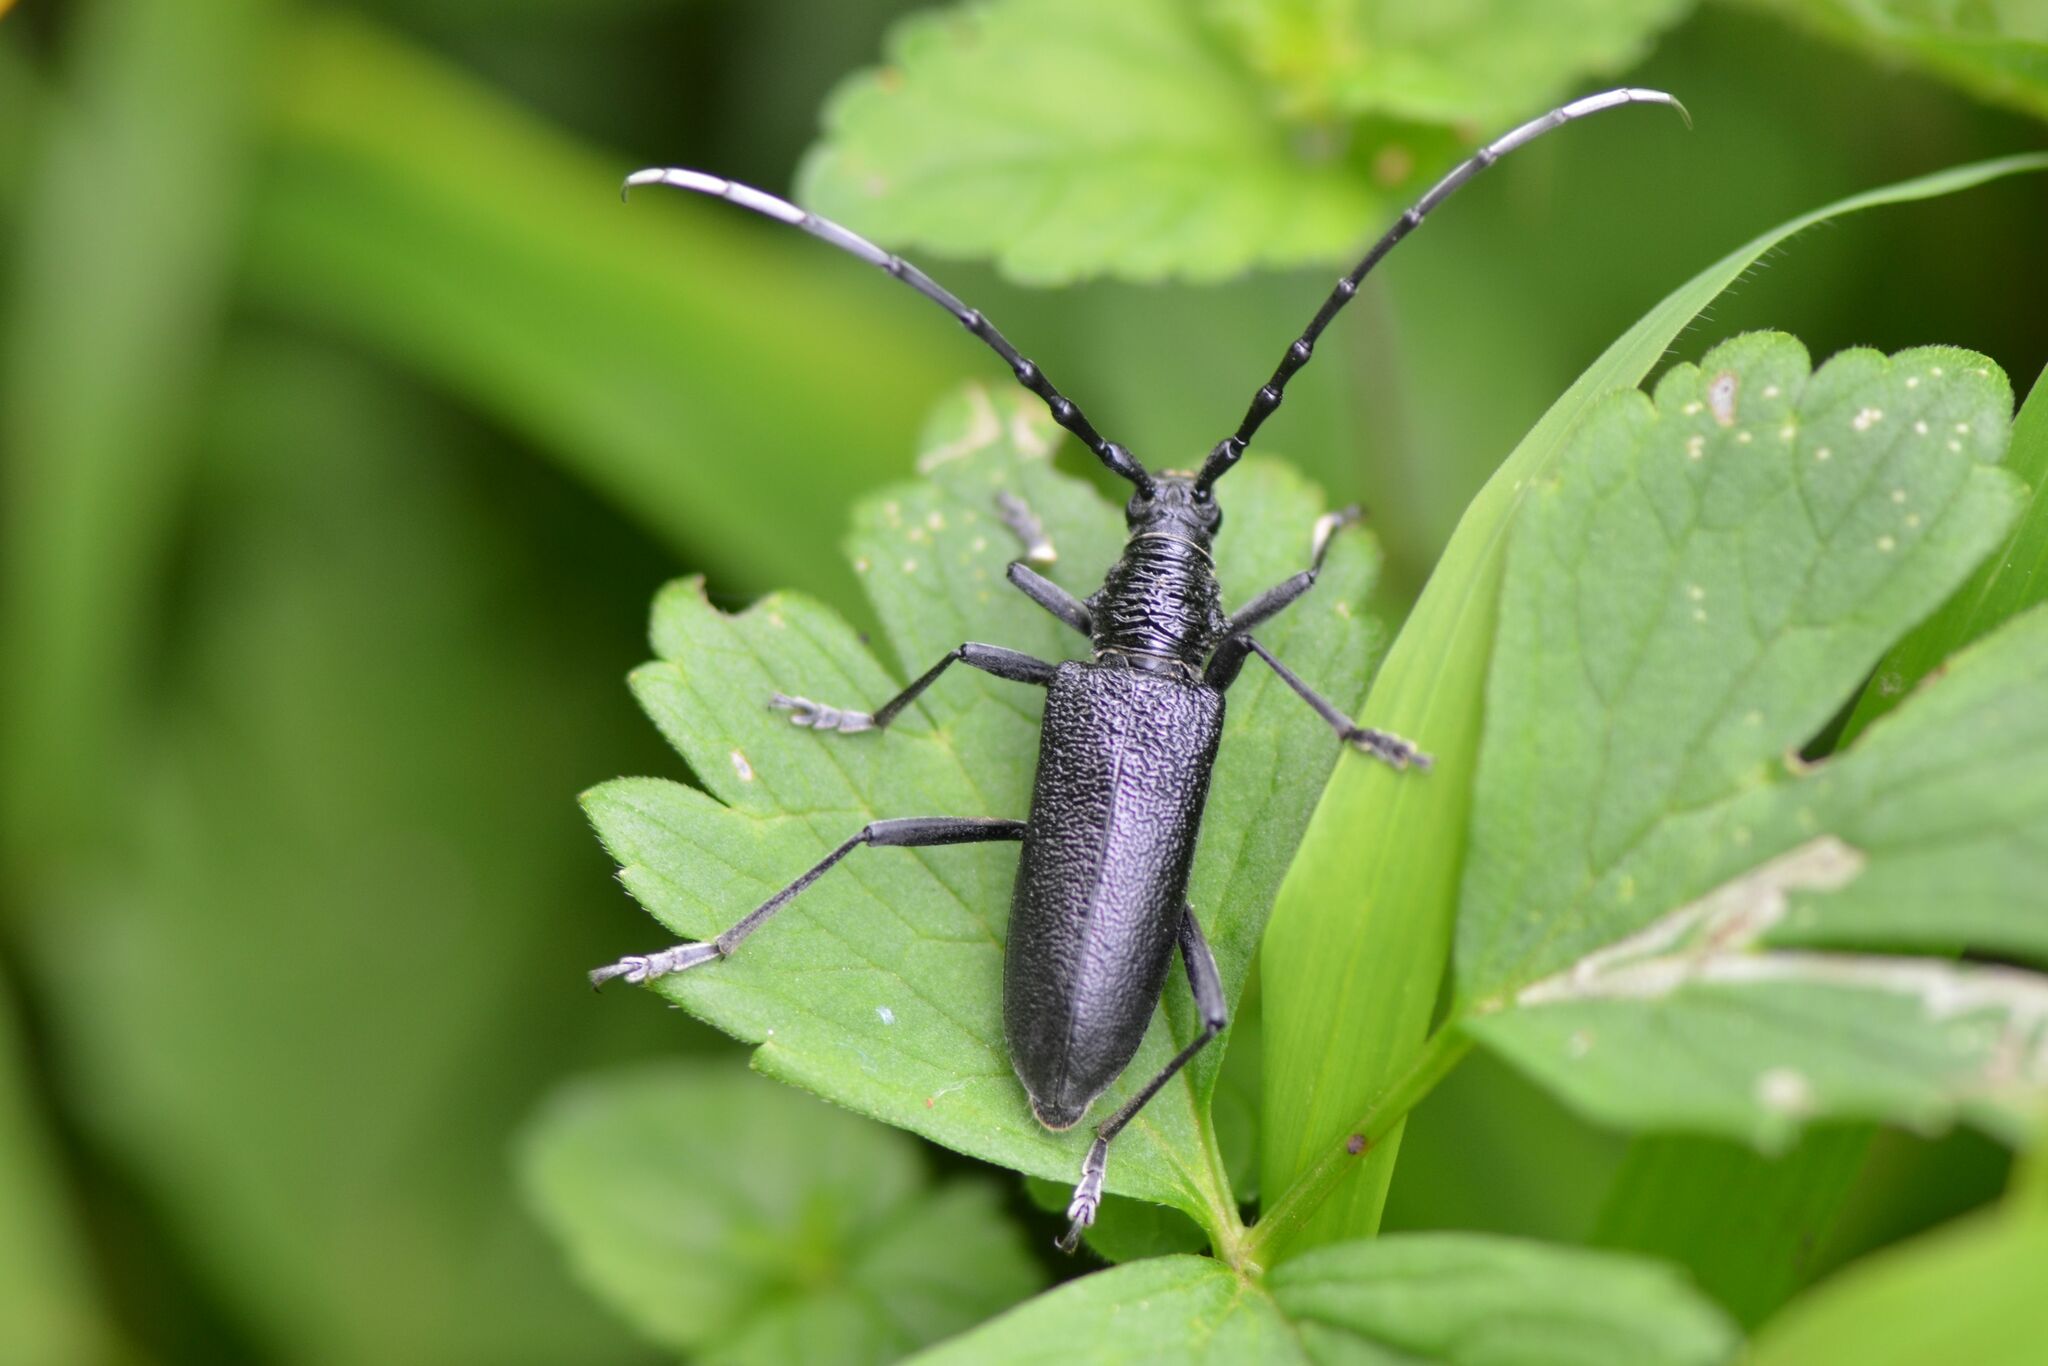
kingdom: Animalia
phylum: Arthropoda
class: Insecta
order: Coleoptera
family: Cerambycidae
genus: Cerambyx
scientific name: Cerambyx scopolii
